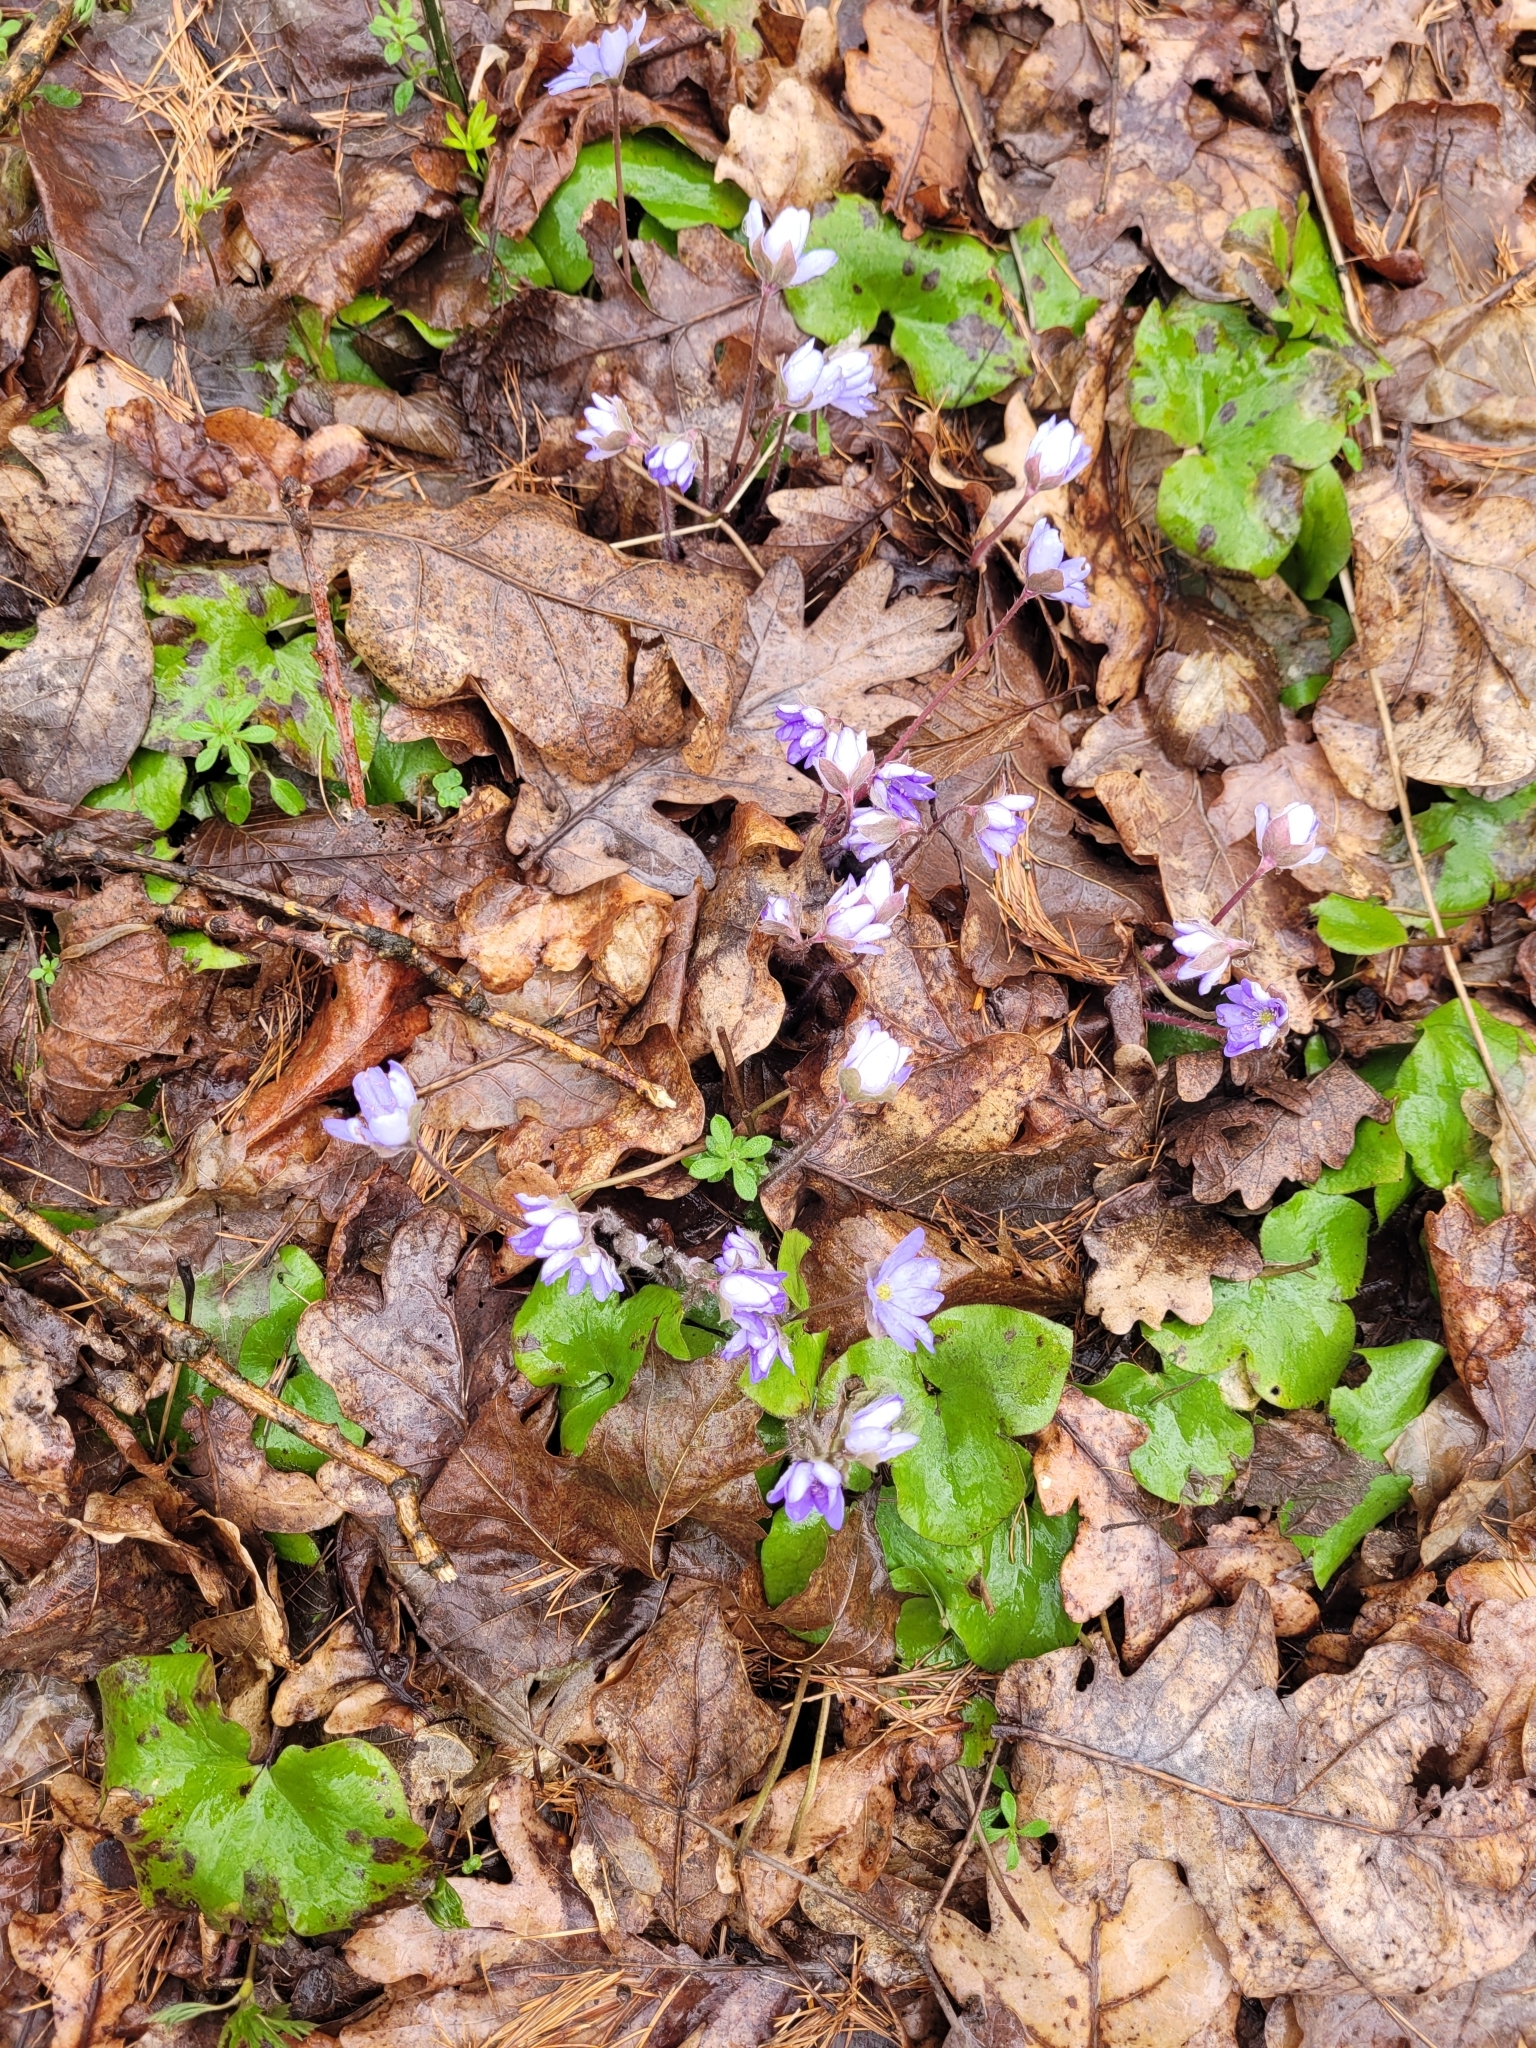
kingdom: Plantae
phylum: Tracheophyta
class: Magnoliopsida
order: Ranunculales
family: Ranunculaceae
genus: Hepatica
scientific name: Hepatica nobilis
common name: Liverleaf
